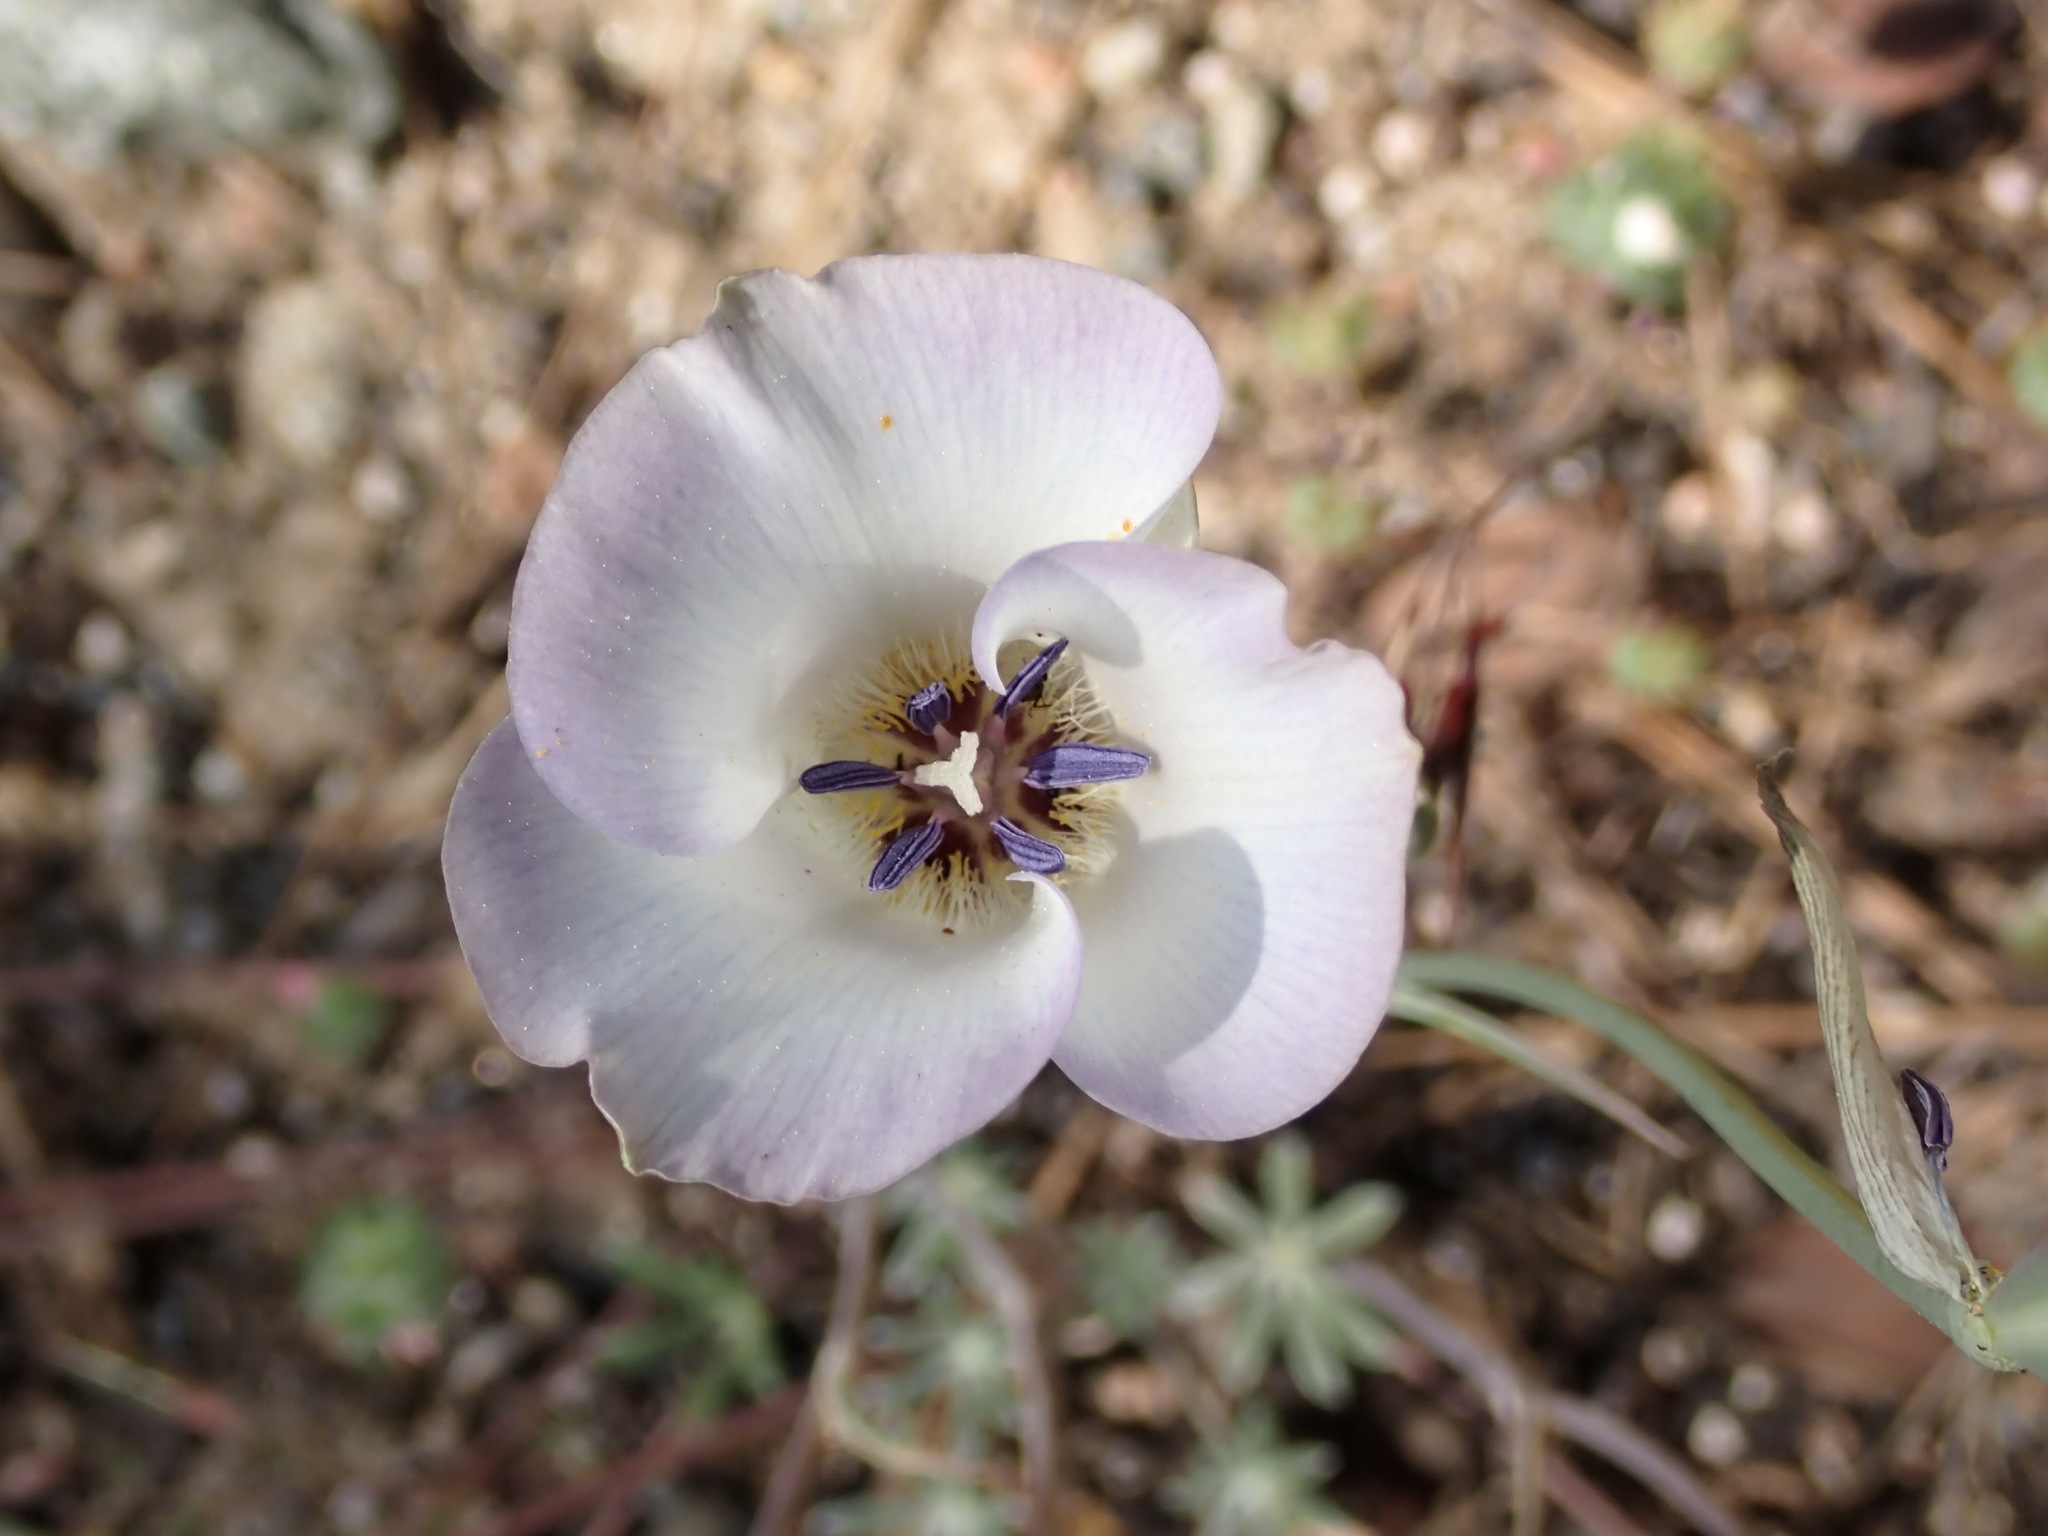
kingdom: Plantae
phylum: Tracheophyta
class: Liliopsida
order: Liliales
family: Liliaceae
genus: Calochortus
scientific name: Calochortus invenustus
